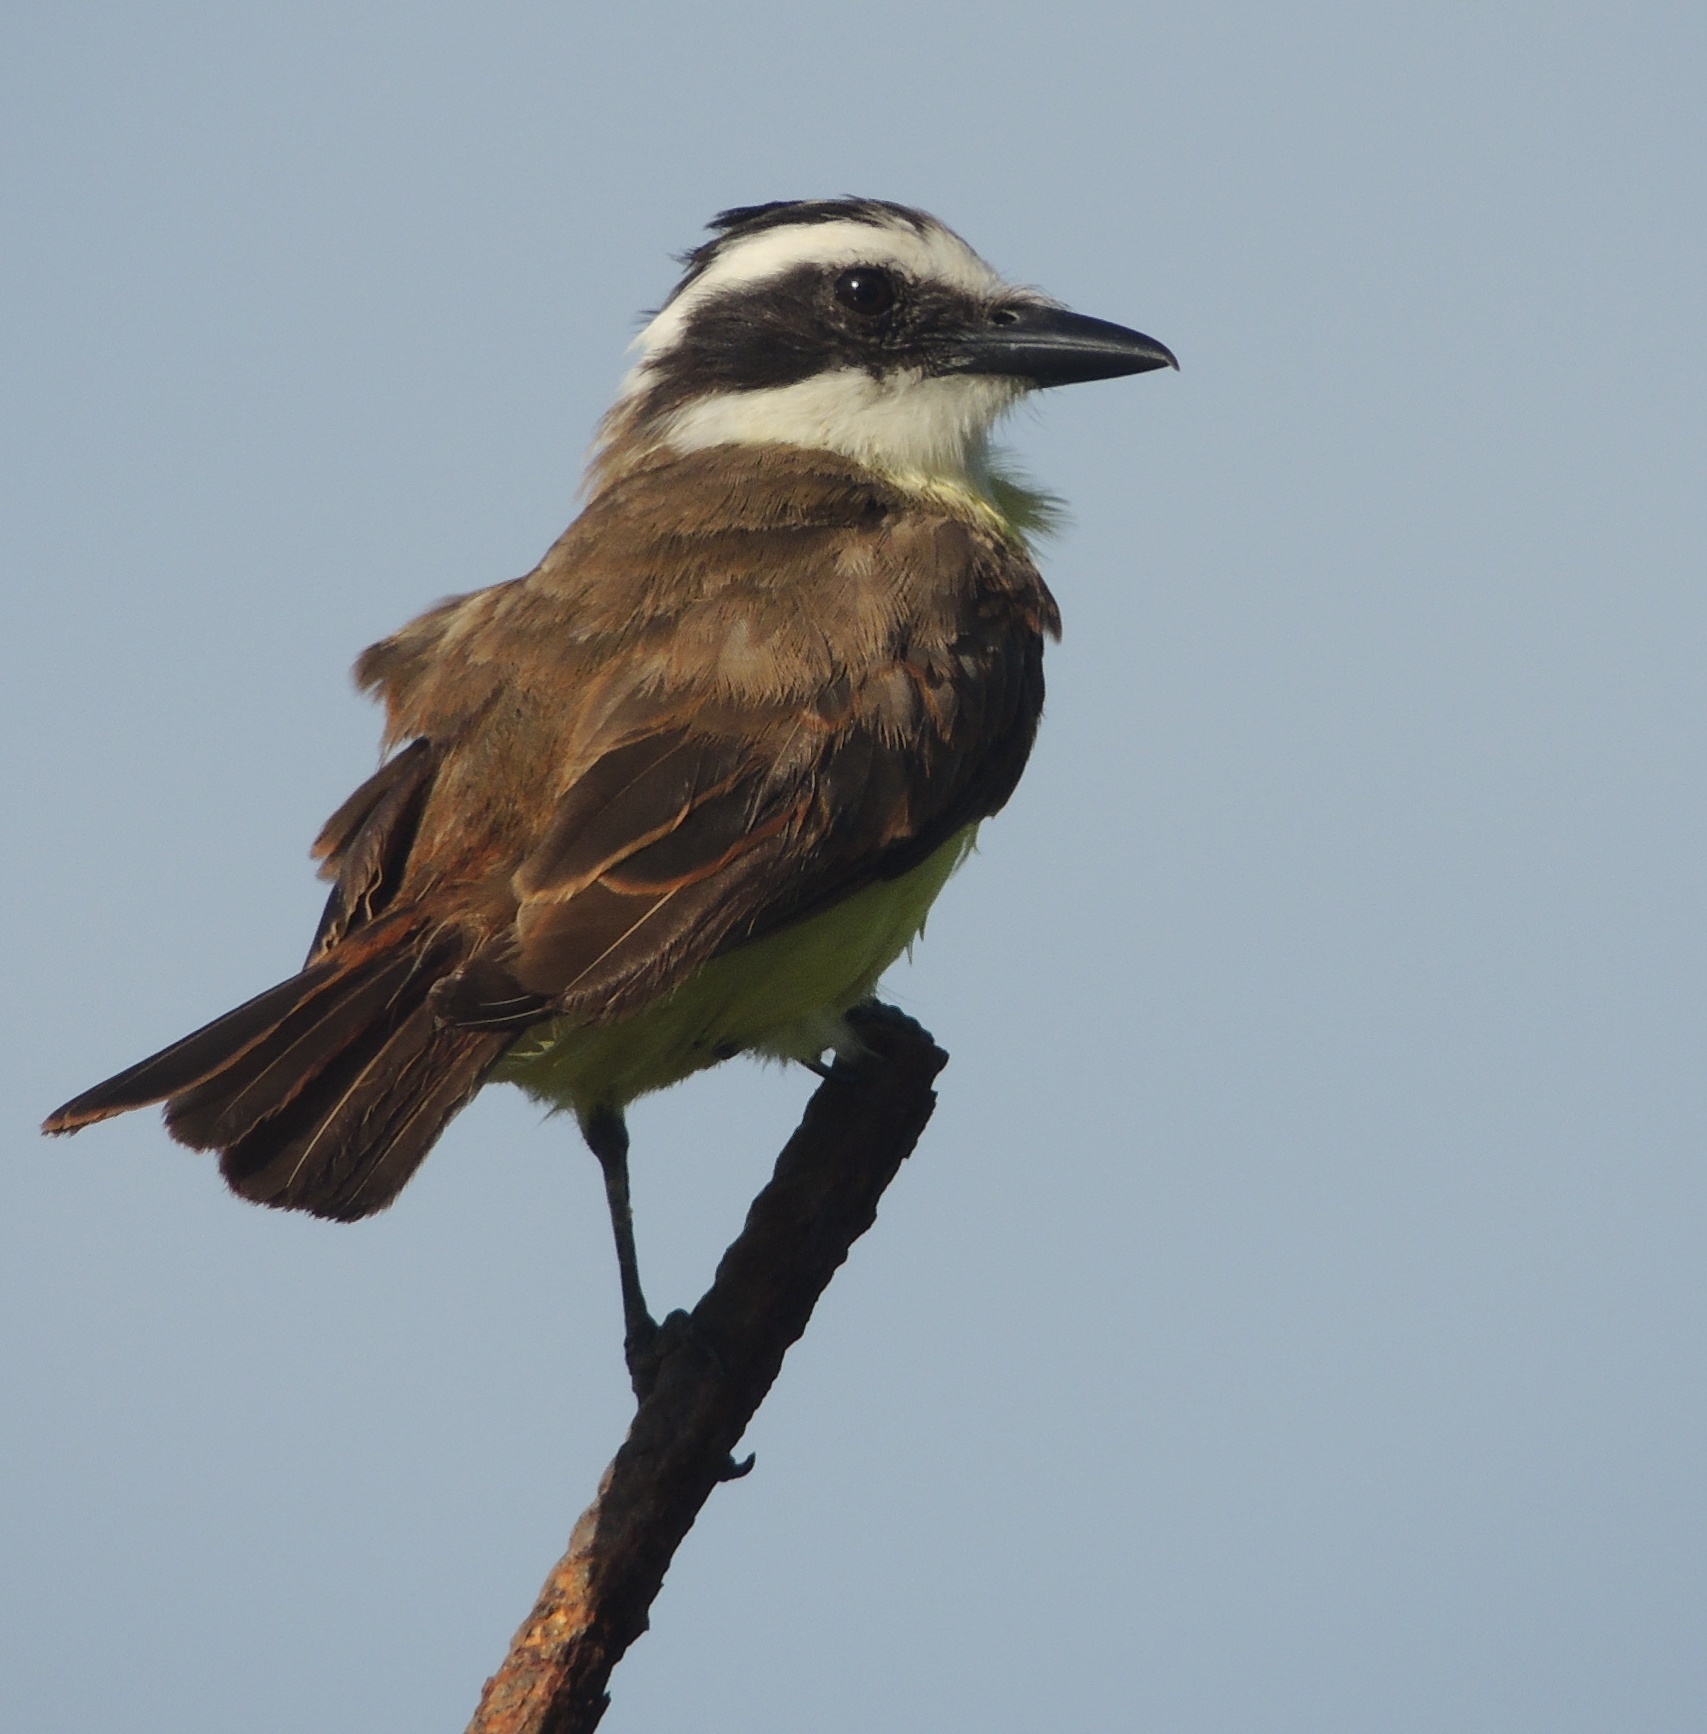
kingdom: Animalia
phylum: Chordata
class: Aves
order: Passeriformes
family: Tyrannidae
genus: Pitangus
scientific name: Pitangus sulphuratus
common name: Great kiskadee
